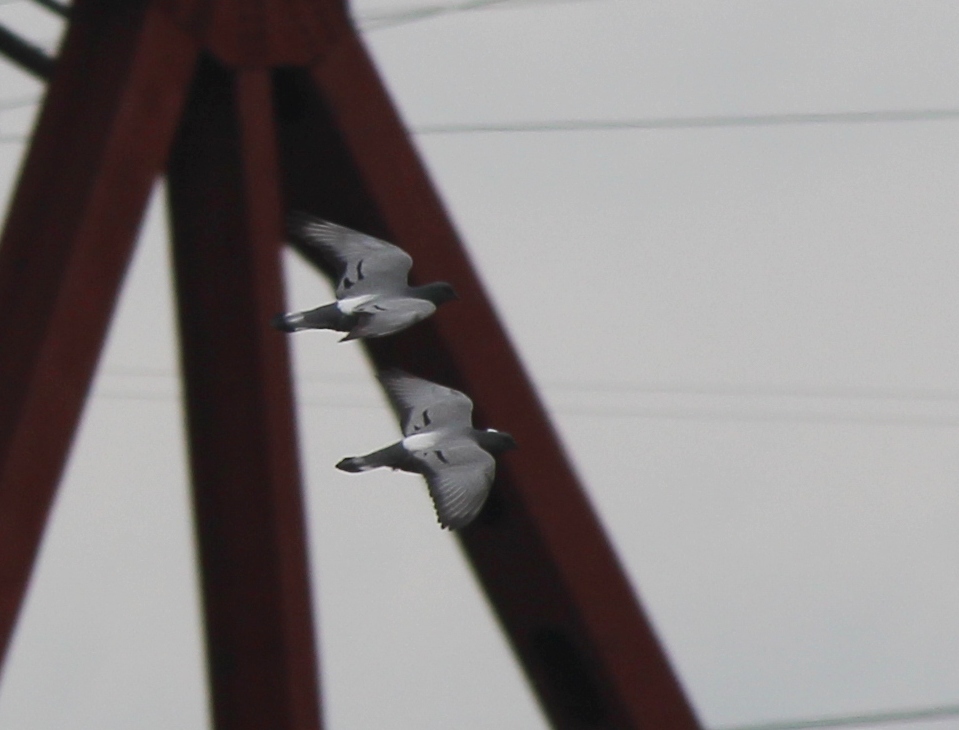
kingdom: Animalia
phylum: Chordata
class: Aves
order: Columbiformes
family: Columbidae
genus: Columba
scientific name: Columba rupestris
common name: Hill pigeon
